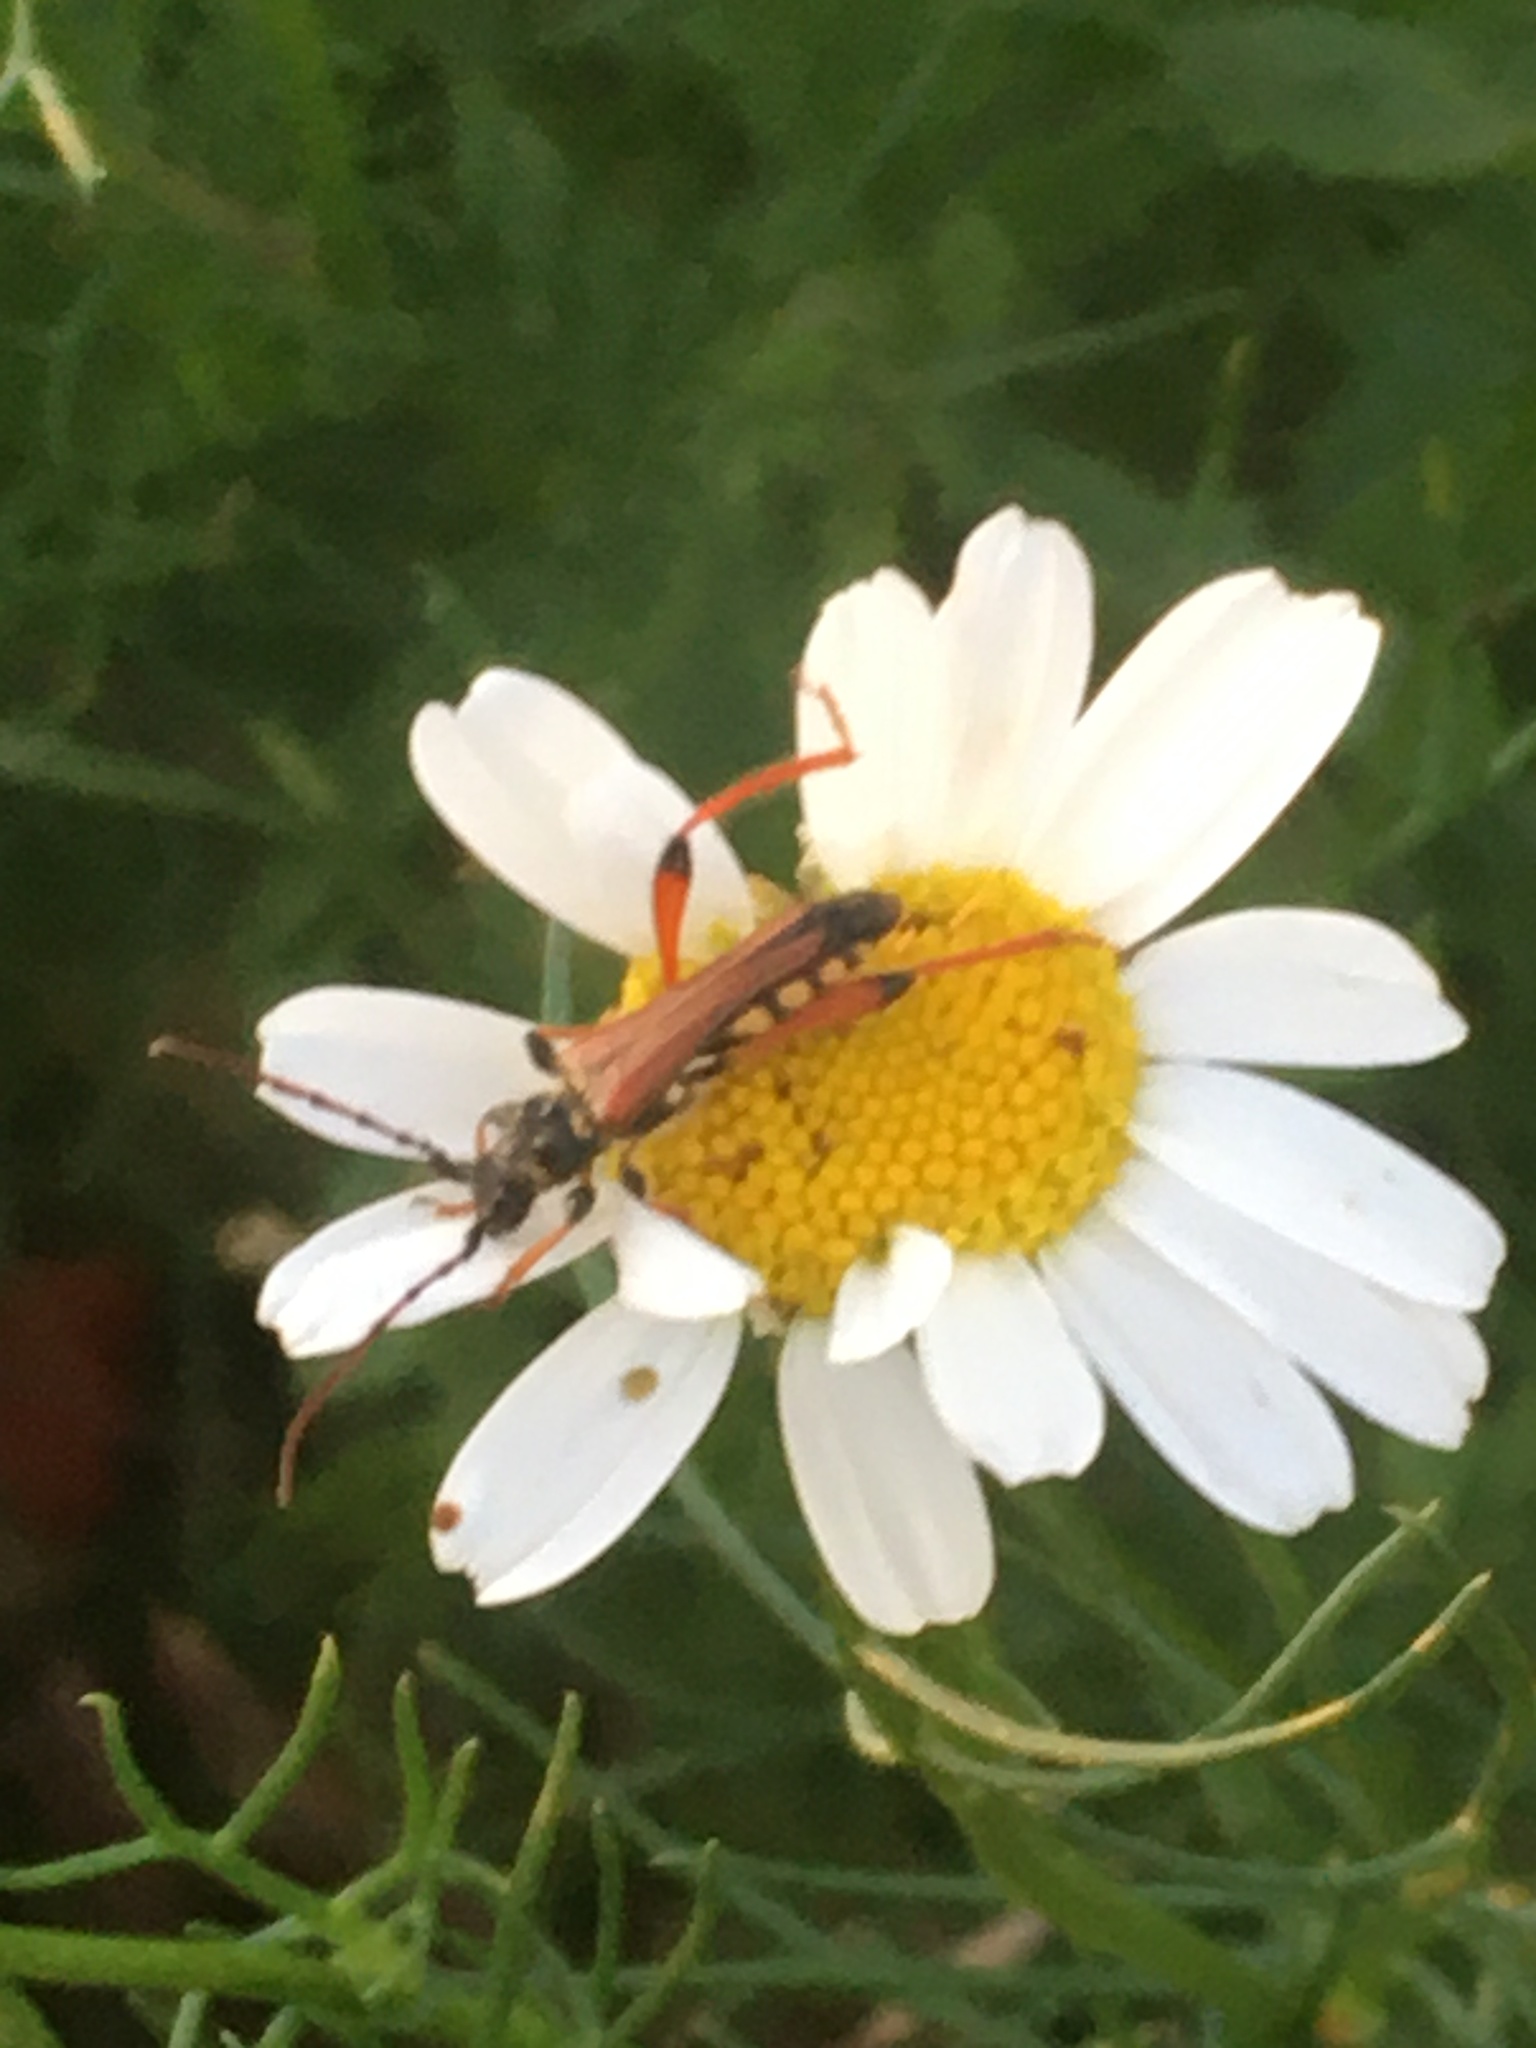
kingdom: Animalia
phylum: Arthropoda
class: Insecta
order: Coleoptera
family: Cerambycidae
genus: Stenopterus
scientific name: Stenopterus rufus
